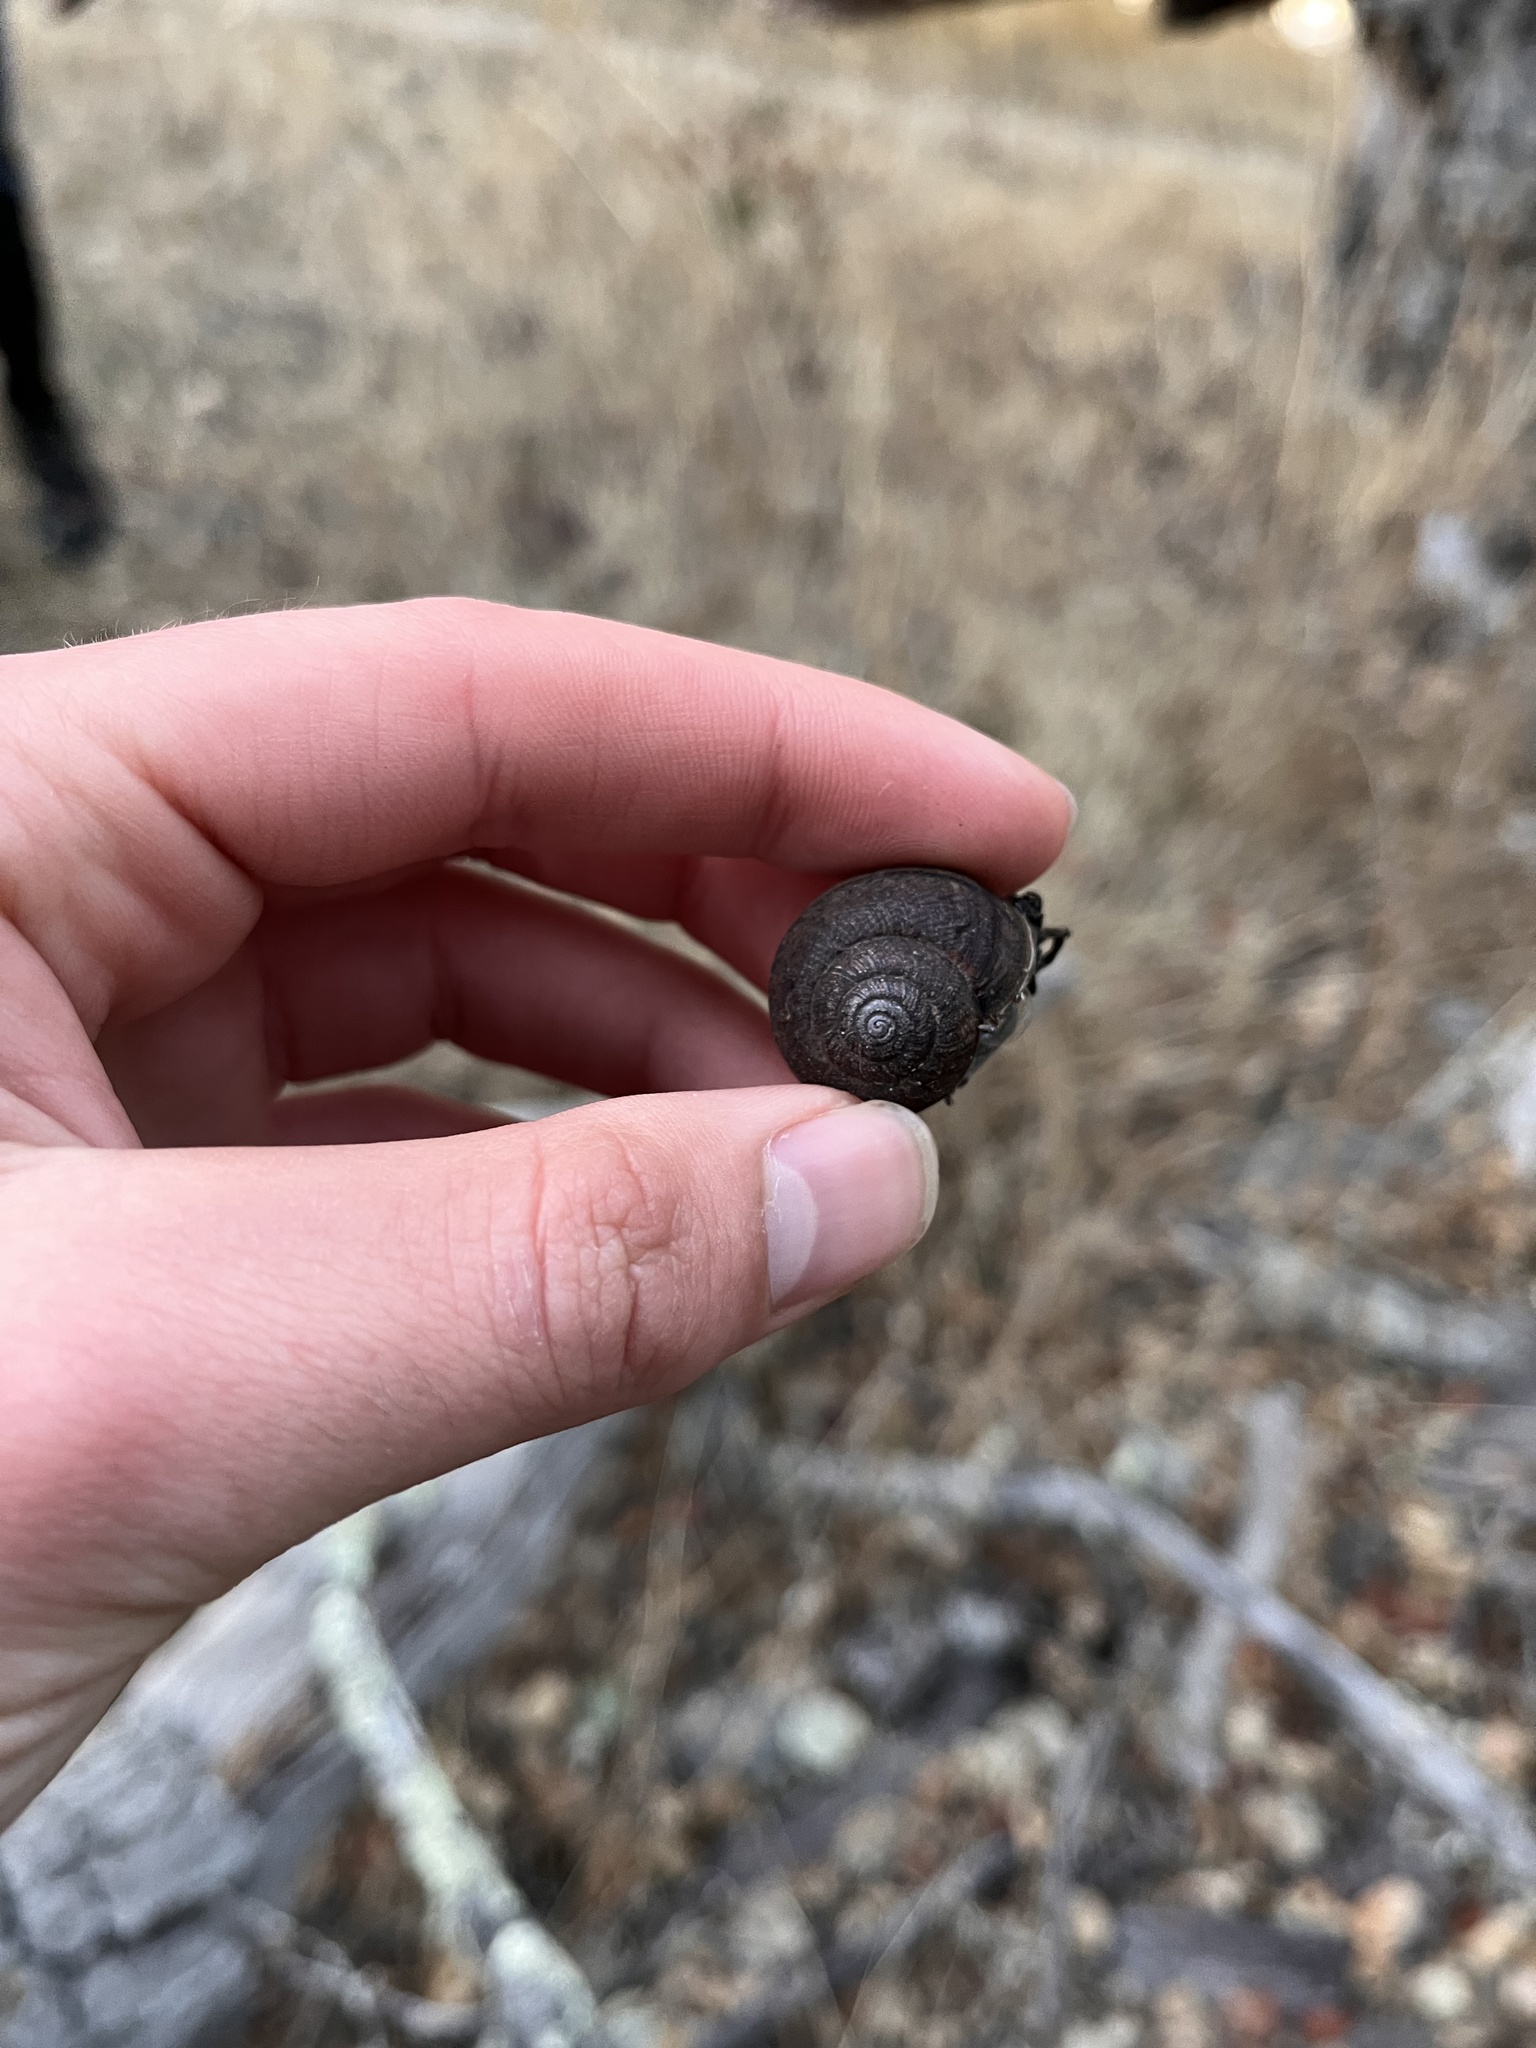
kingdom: Animalia
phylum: Mollusca
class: Gastropoda
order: Stylommatophora
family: Xanthonychidae
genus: Helminthoglypta
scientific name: Helminthoglypta nickliniana
